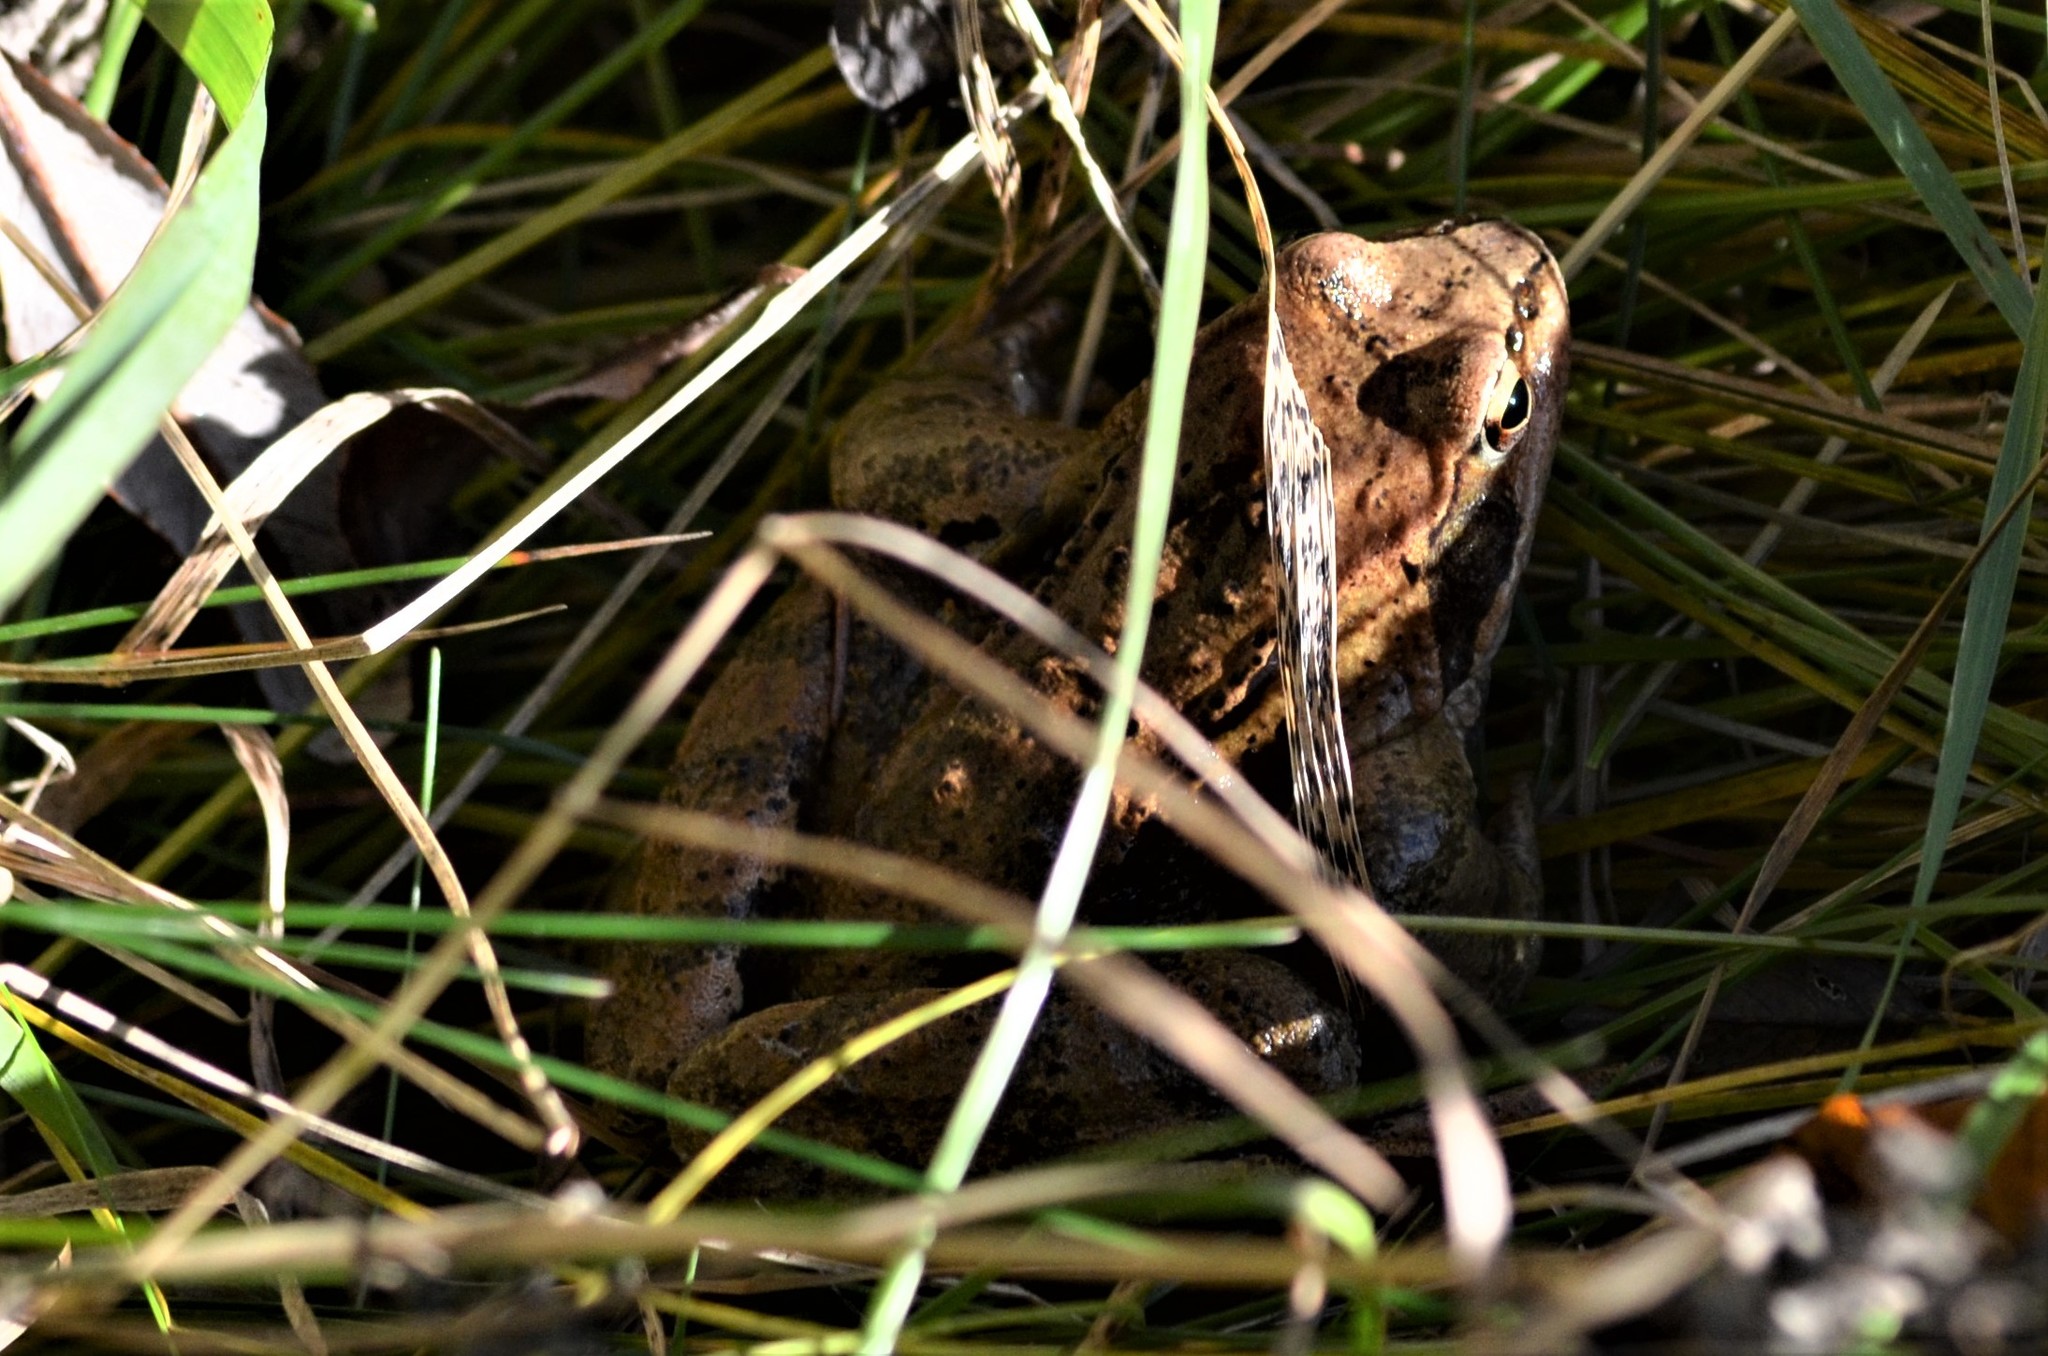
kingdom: Animalia
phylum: Chordata
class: Amphibia
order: Anura
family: Ranidae
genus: Rana
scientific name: Rana temporaria
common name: Common frog
